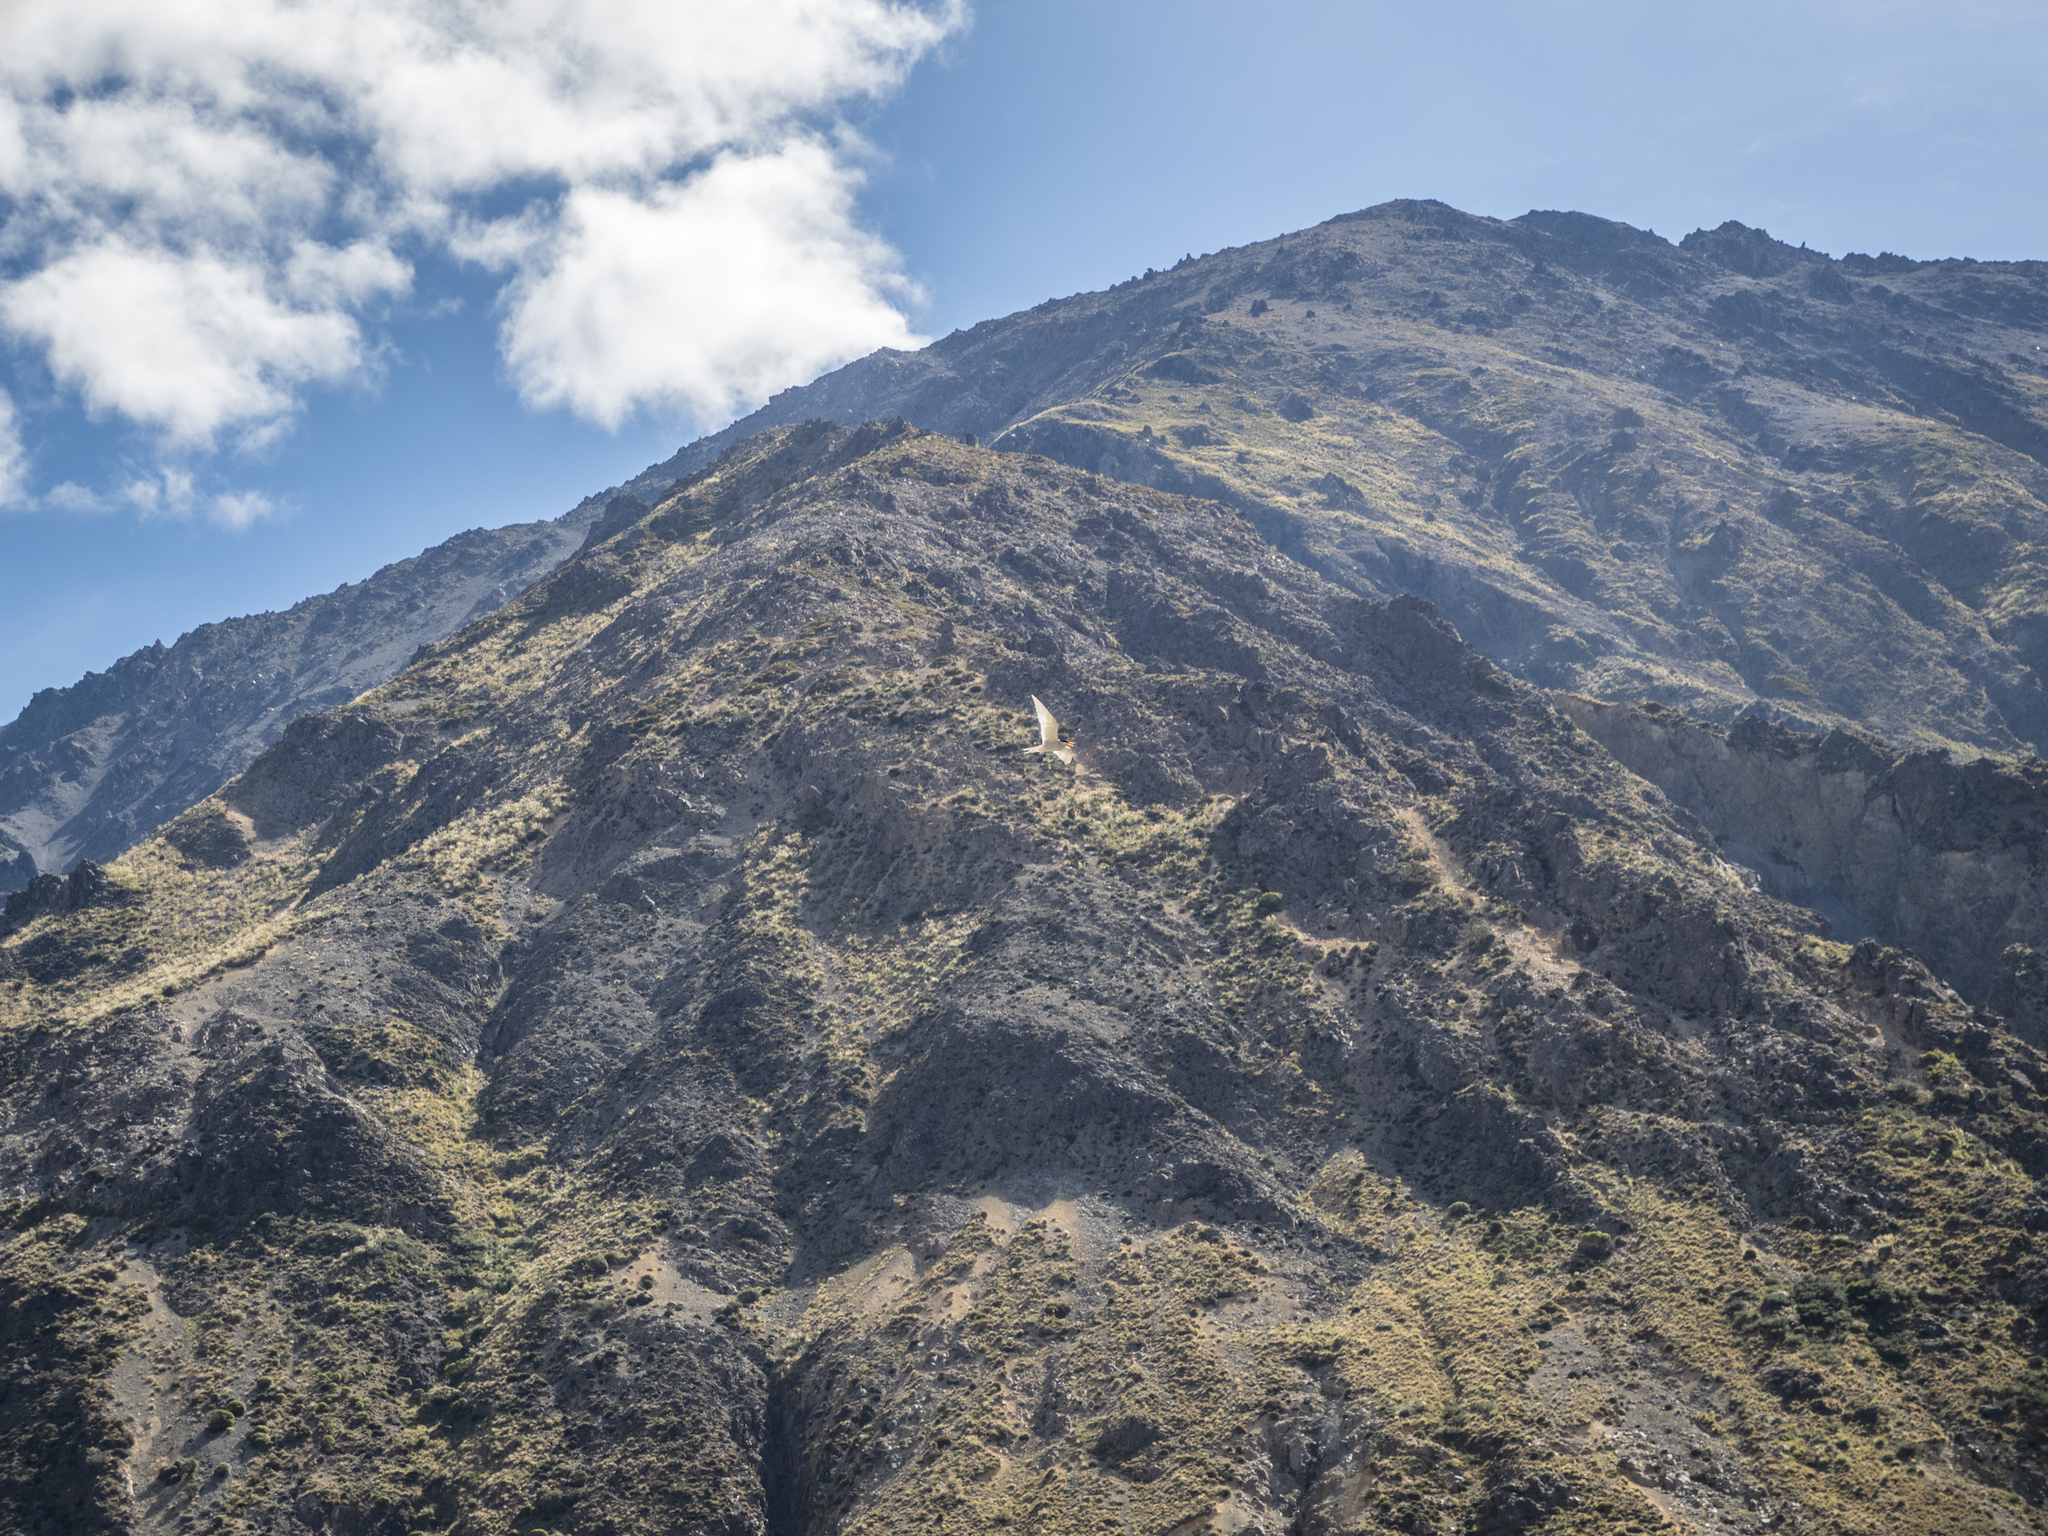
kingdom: Animalia
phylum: Chordata
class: Aves
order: Charadriiformes
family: Laridae
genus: Chlidonias
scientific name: Chlidonias albostriatus
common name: Black-fronted tern
